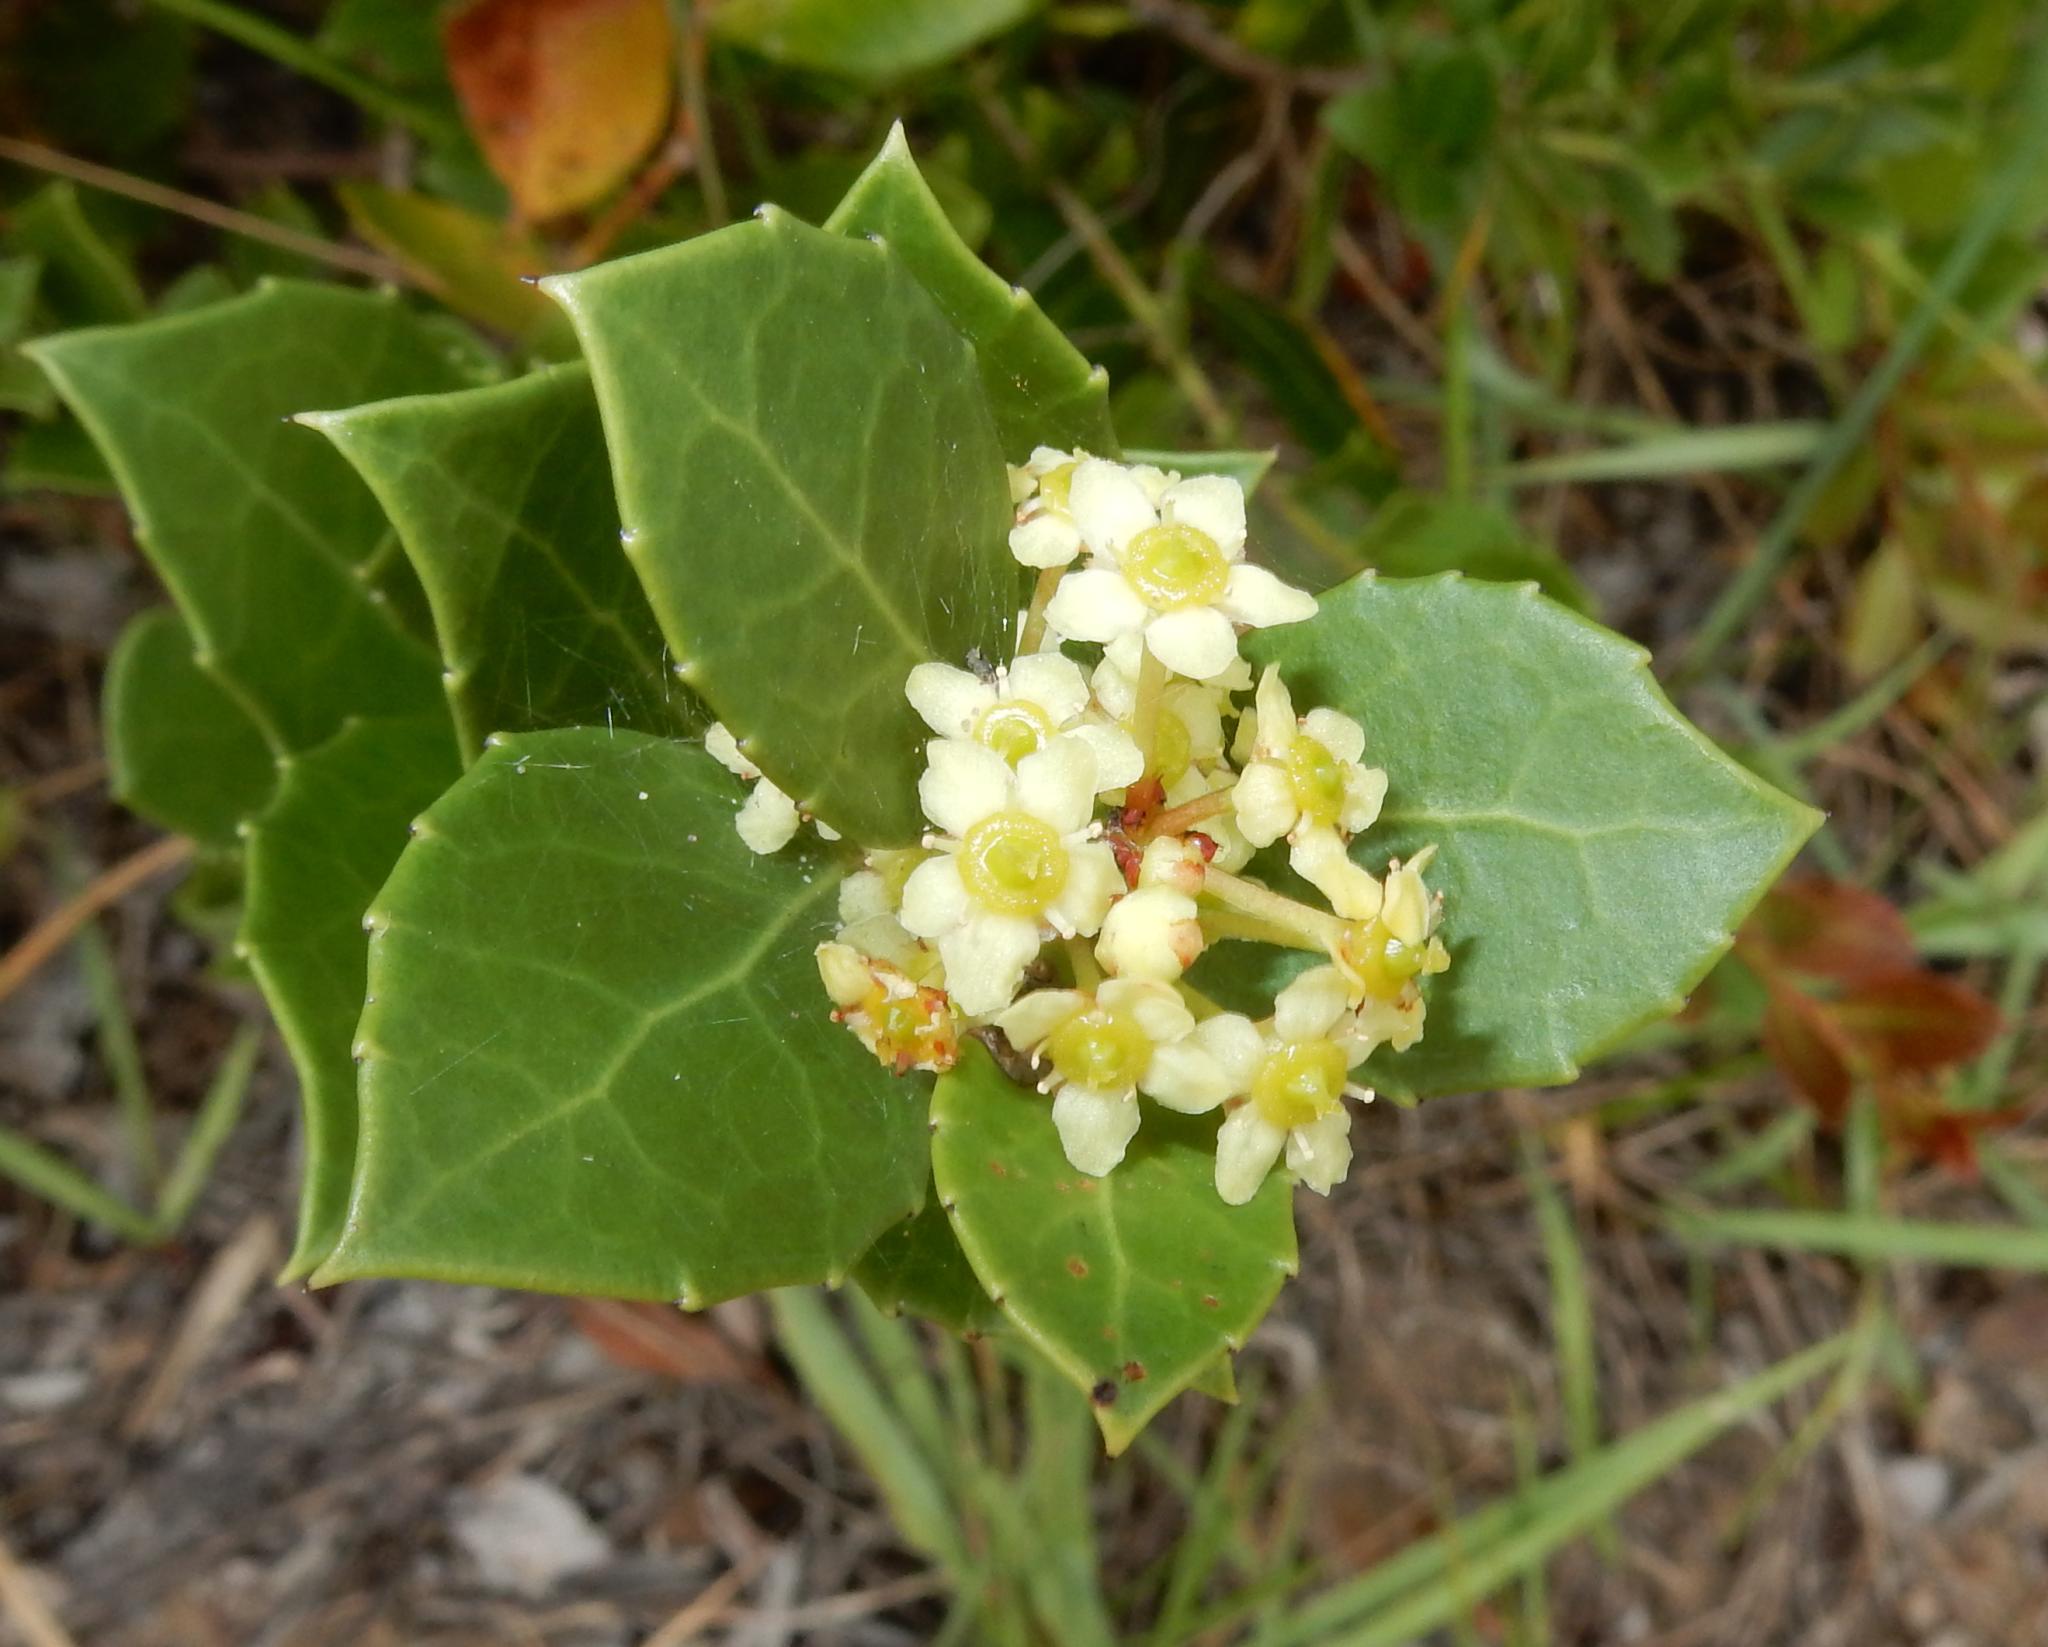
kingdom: Plantae
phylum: Tracheophyta
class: Magnoliopsida
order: Celastrales
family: Celastraceae
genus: Gymnosporia
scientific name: Gymnosporia procumbens
